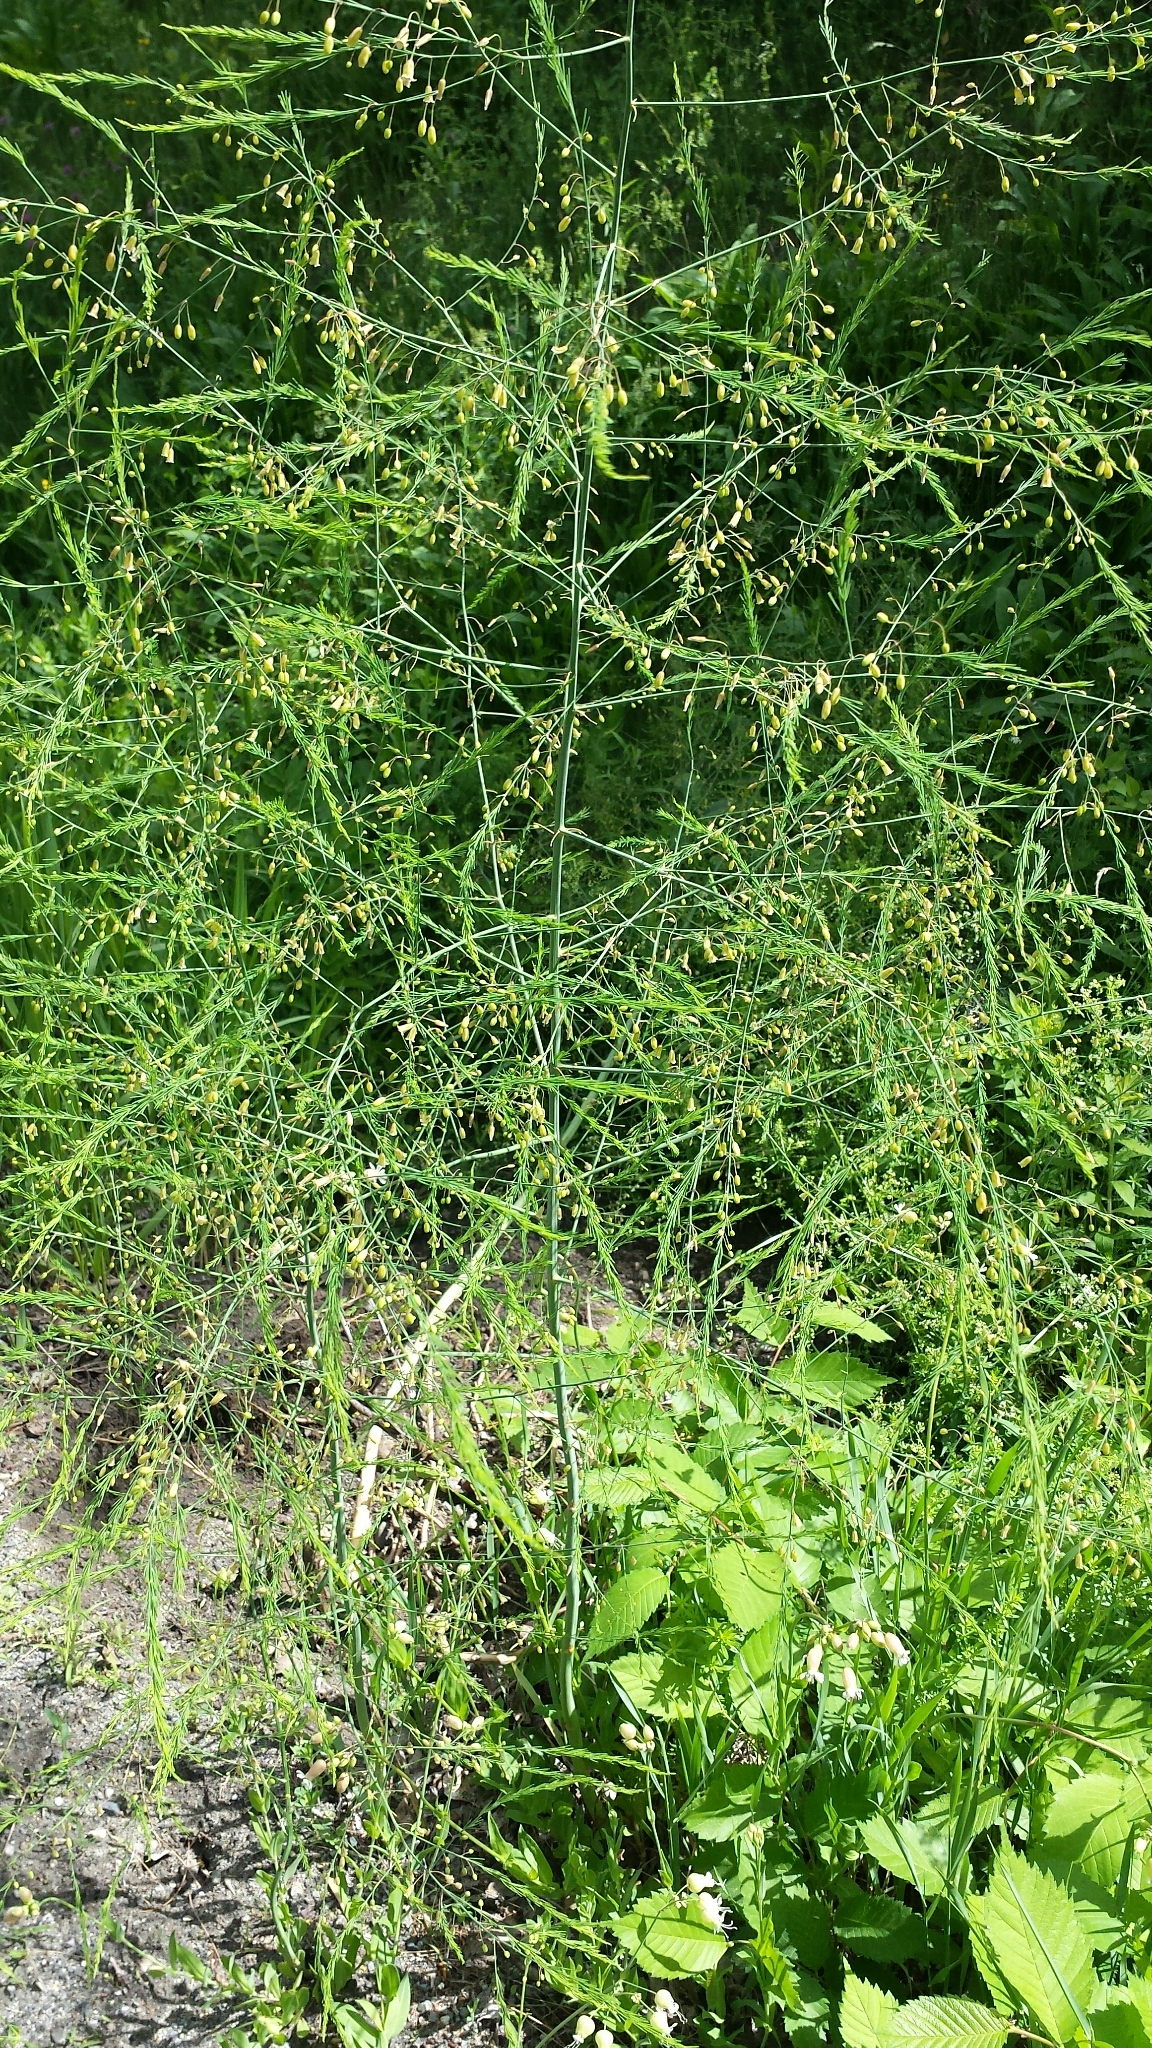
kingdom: Plantae
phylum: Tracheophyta
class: Liliopsida
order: Asparagales
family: Asparagaceae
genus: Asparagus
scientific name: Asparagus officinalis
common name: Garden asparagus
